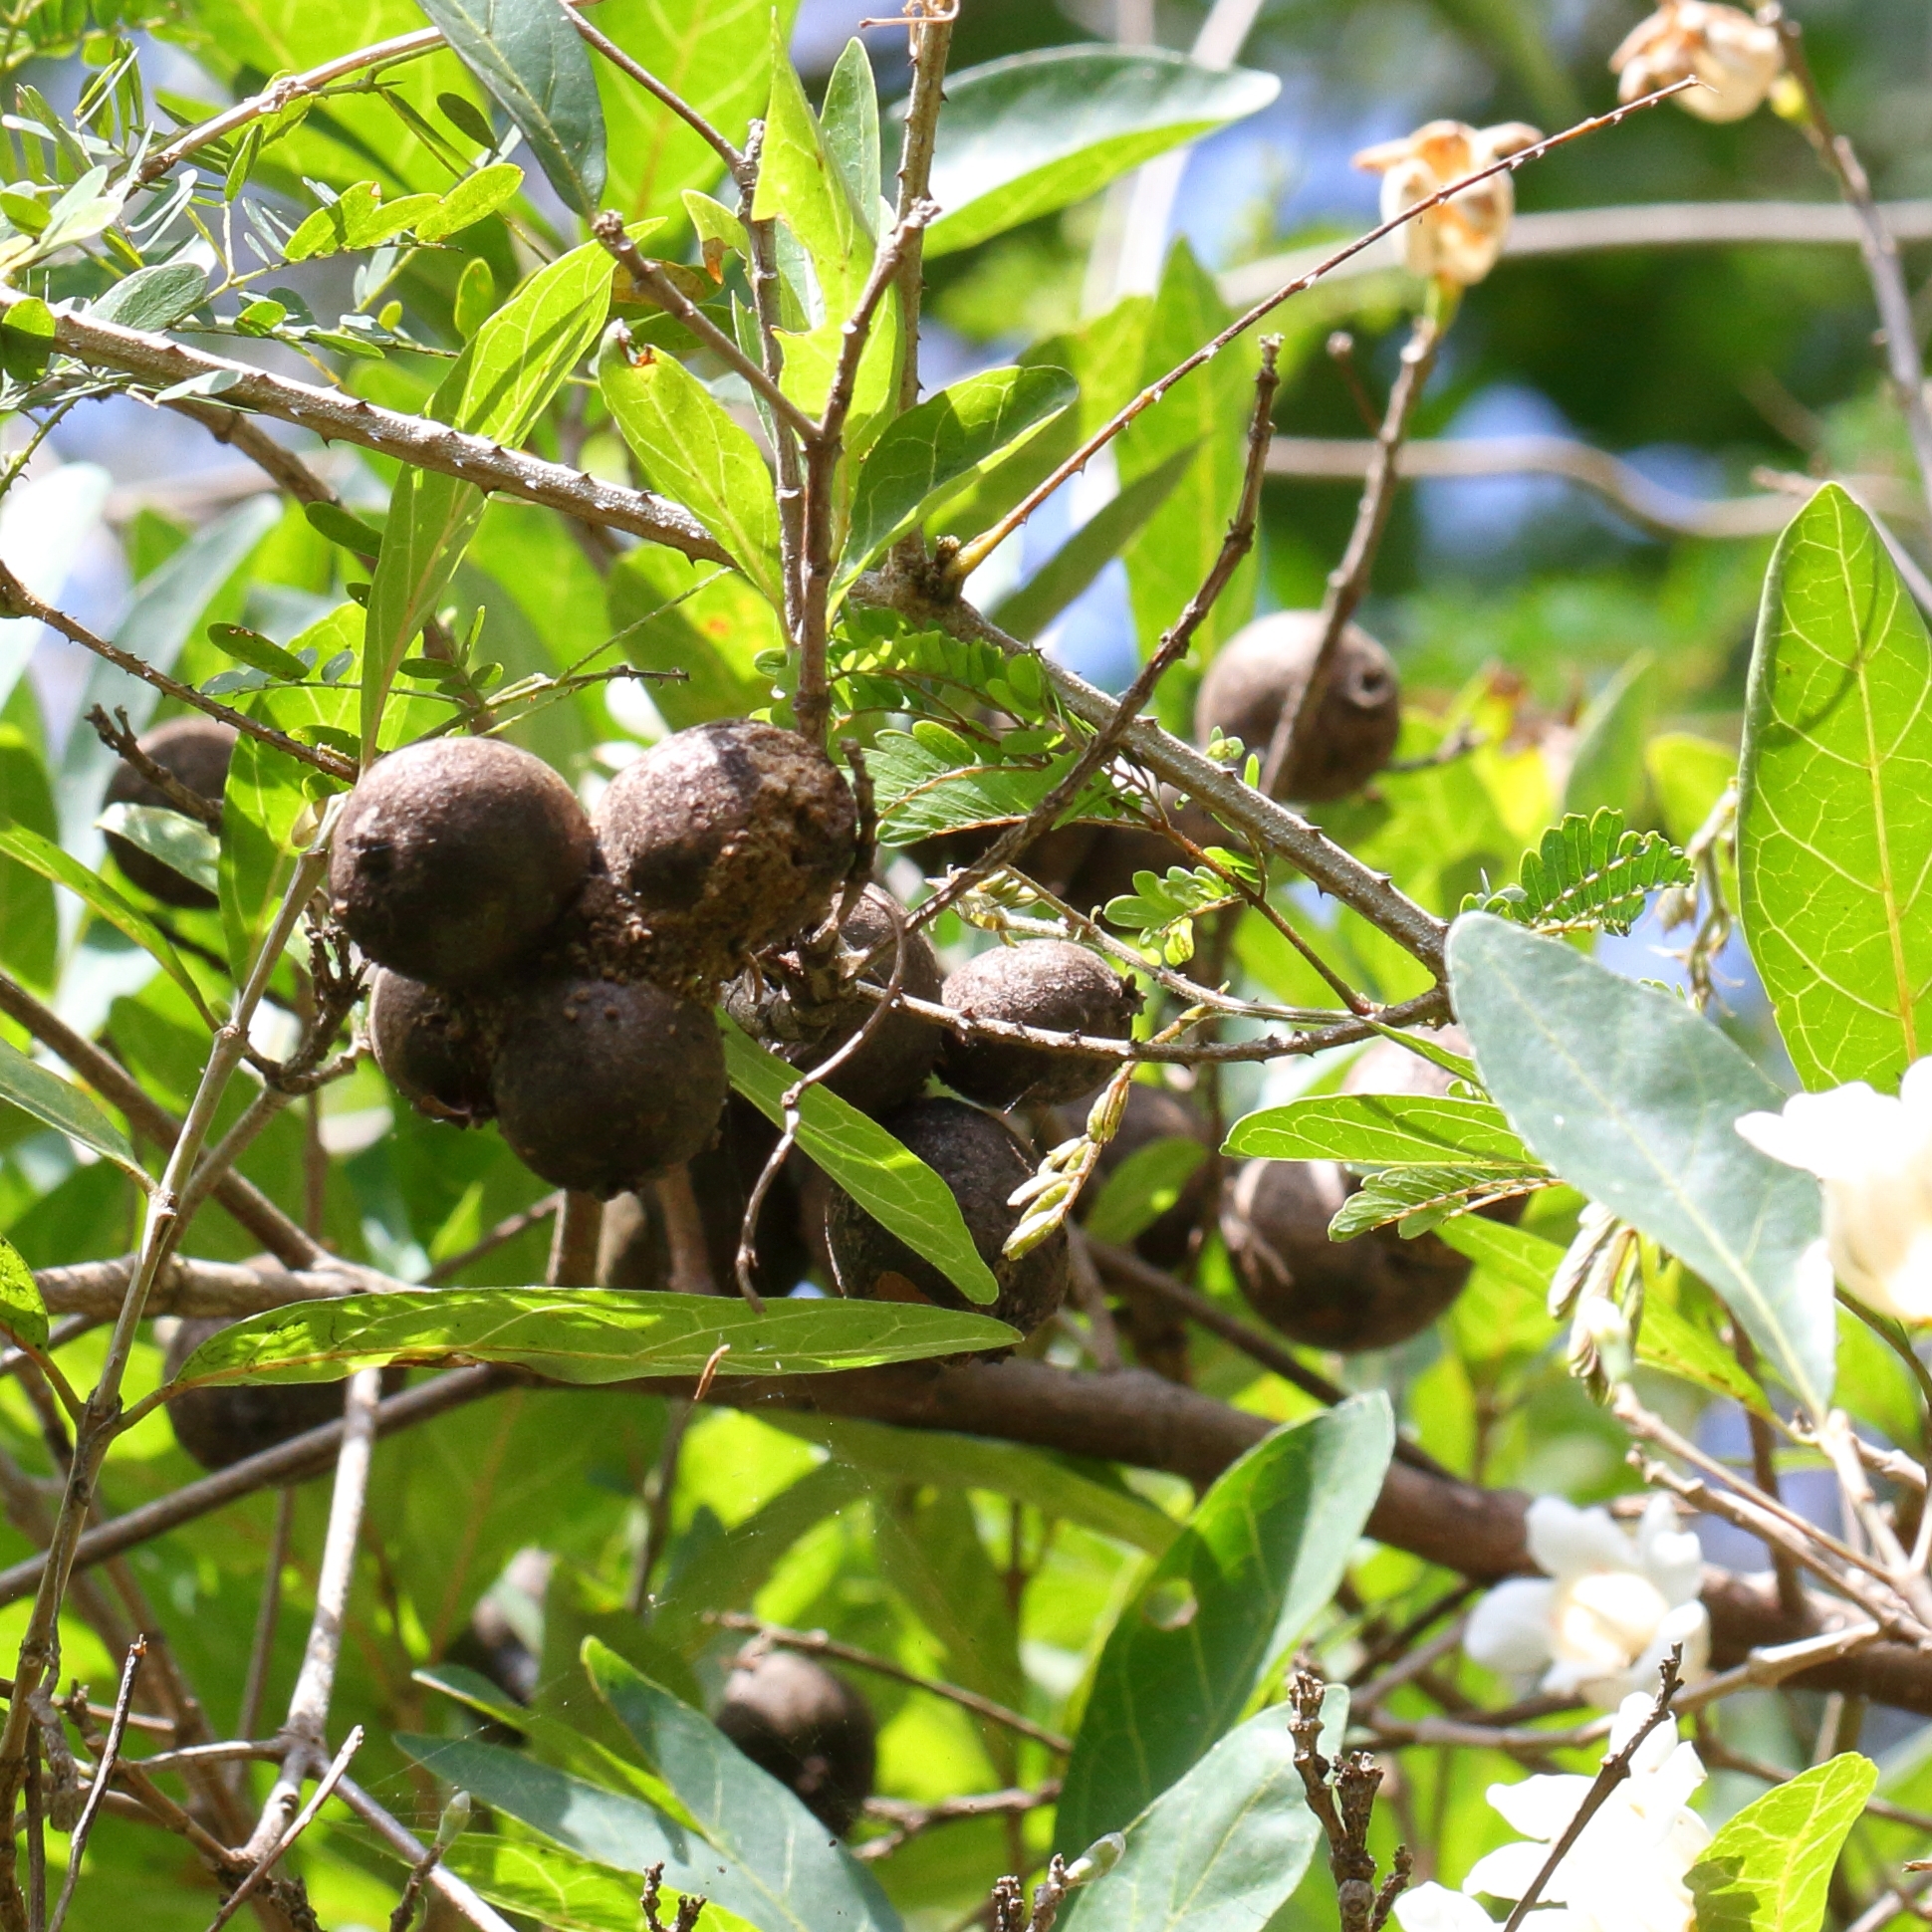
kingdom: Plantae
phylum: Tracheophyta
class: Magnoliopsida
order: Gentianales
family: Rubiaceae
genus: Rothmannia
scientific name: Rothmannia globosa
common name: September bells
